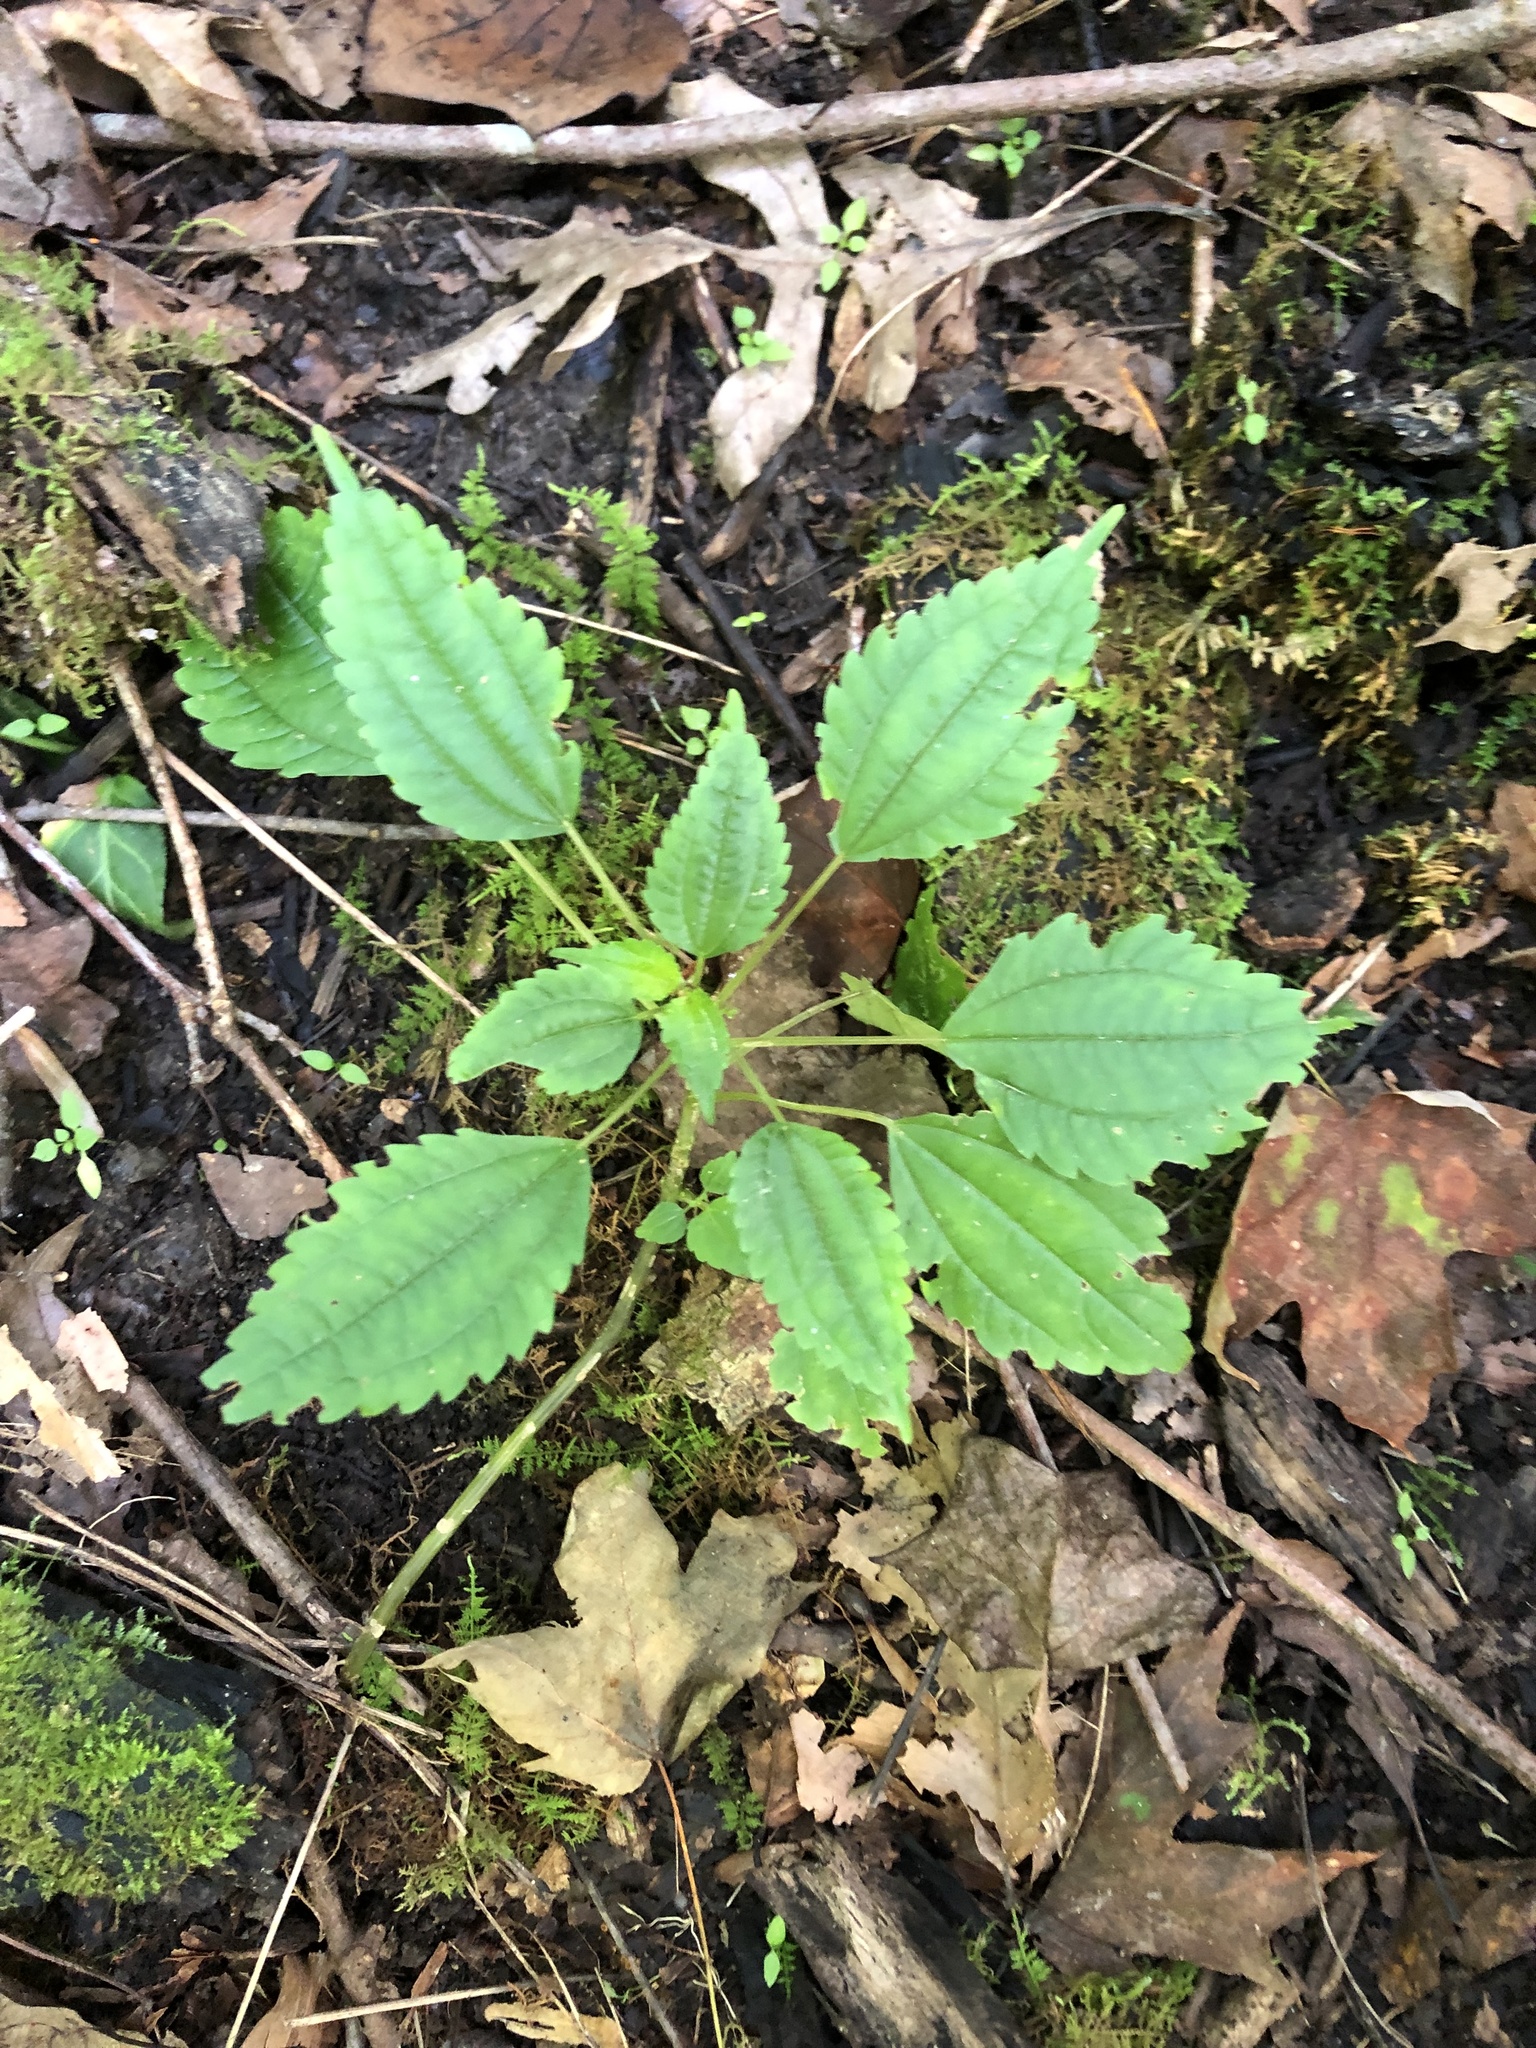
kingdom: Plantae
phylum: Tracheophyta
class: Magnoliopsida
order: Rosales
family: Urticaceae
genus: Pilea
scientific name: Pilea pumila
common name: Clearweed
